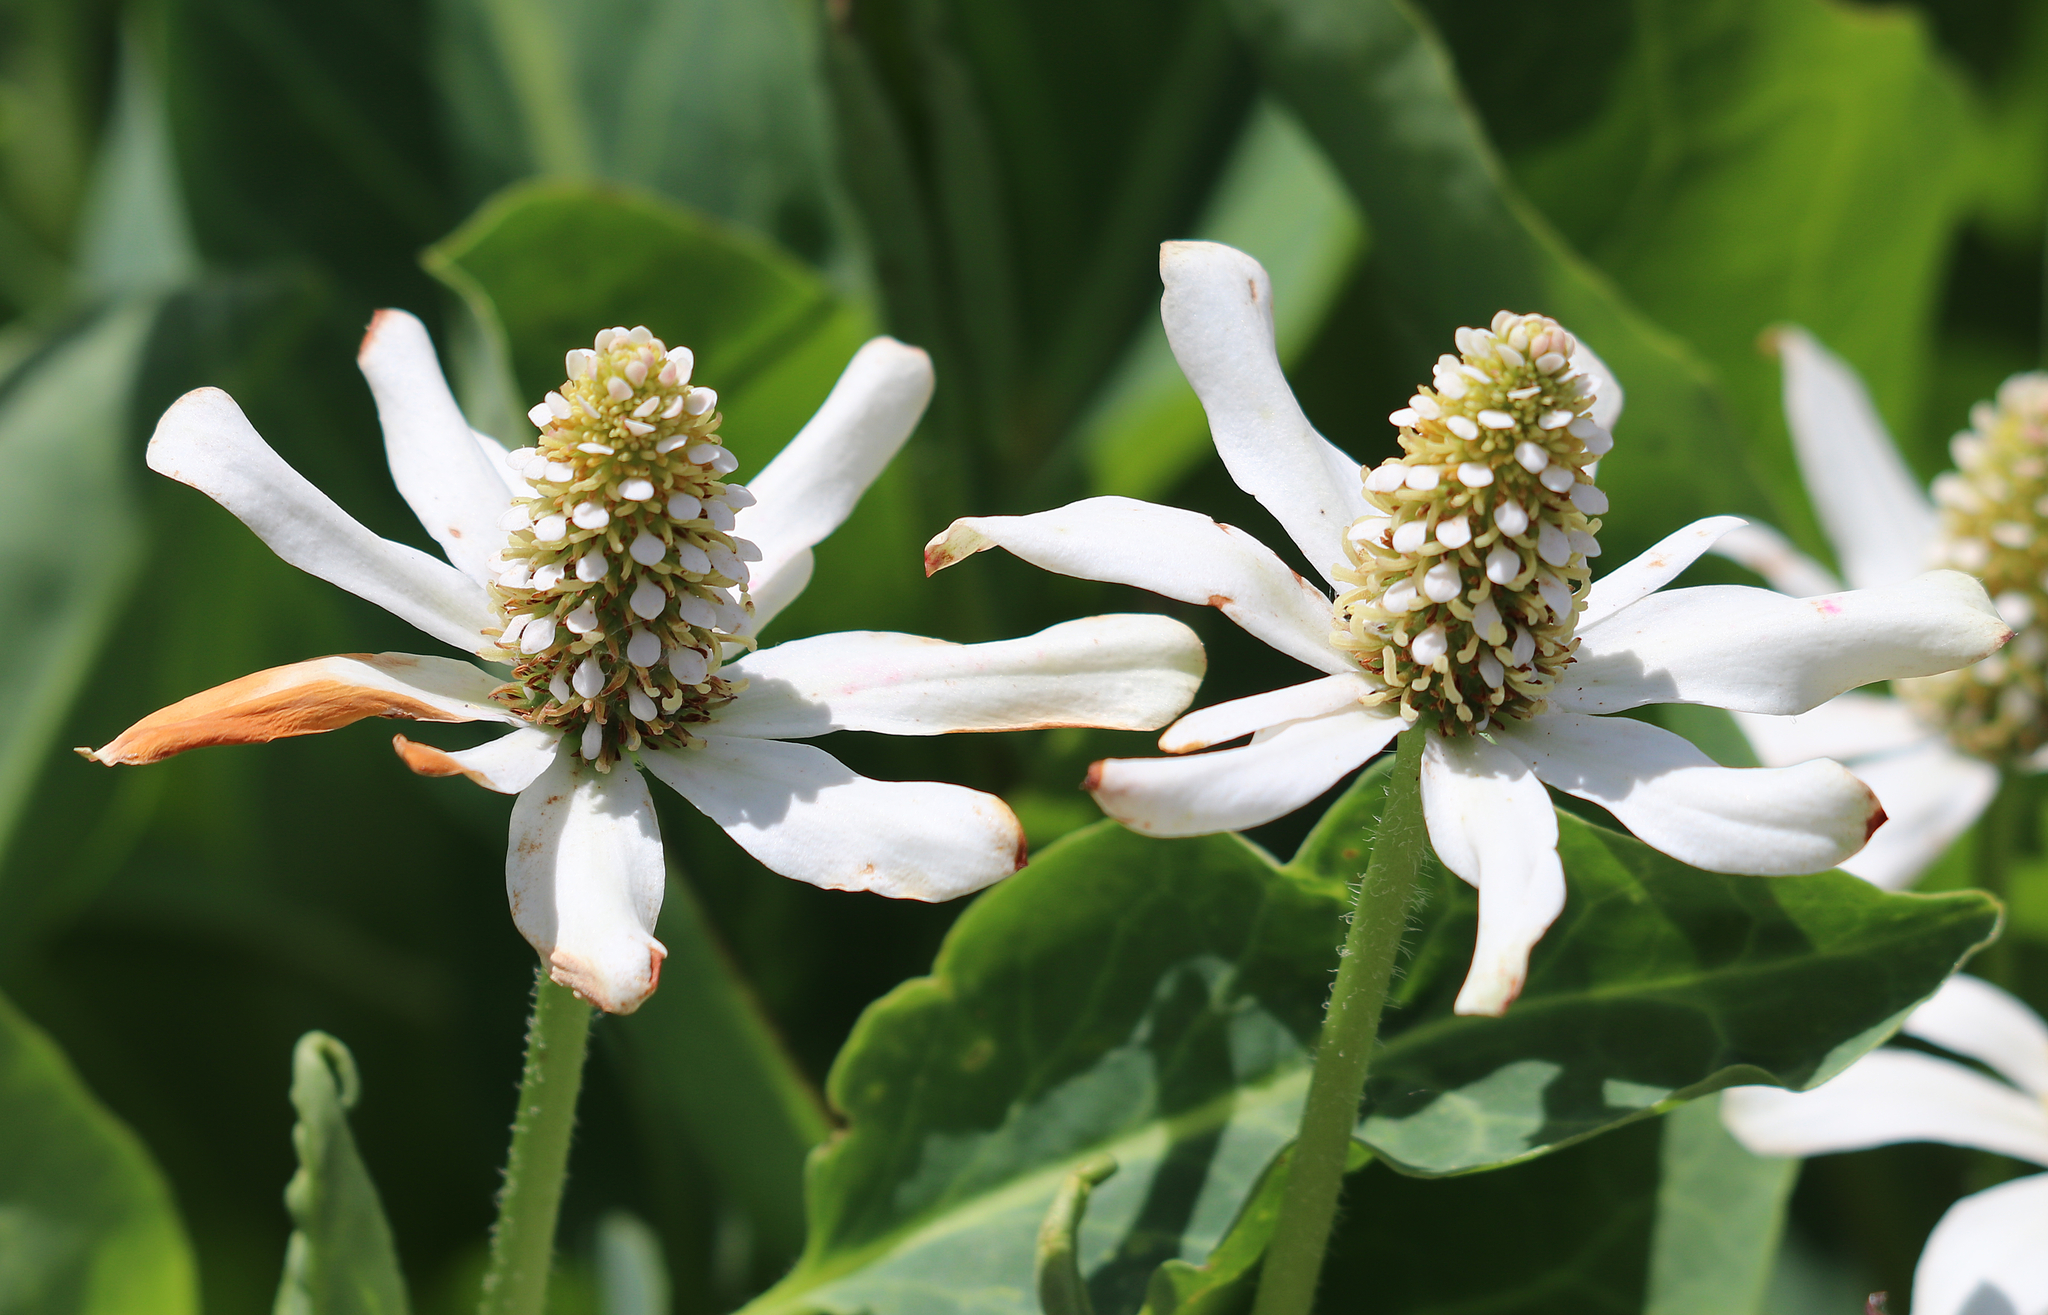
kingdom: Plantae
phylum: Tracheophyta
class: Magnoliopsida
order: Piperales
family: Saururaceae
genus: Anemopsis
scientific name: Anemopsis californica
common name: Apache-beads
